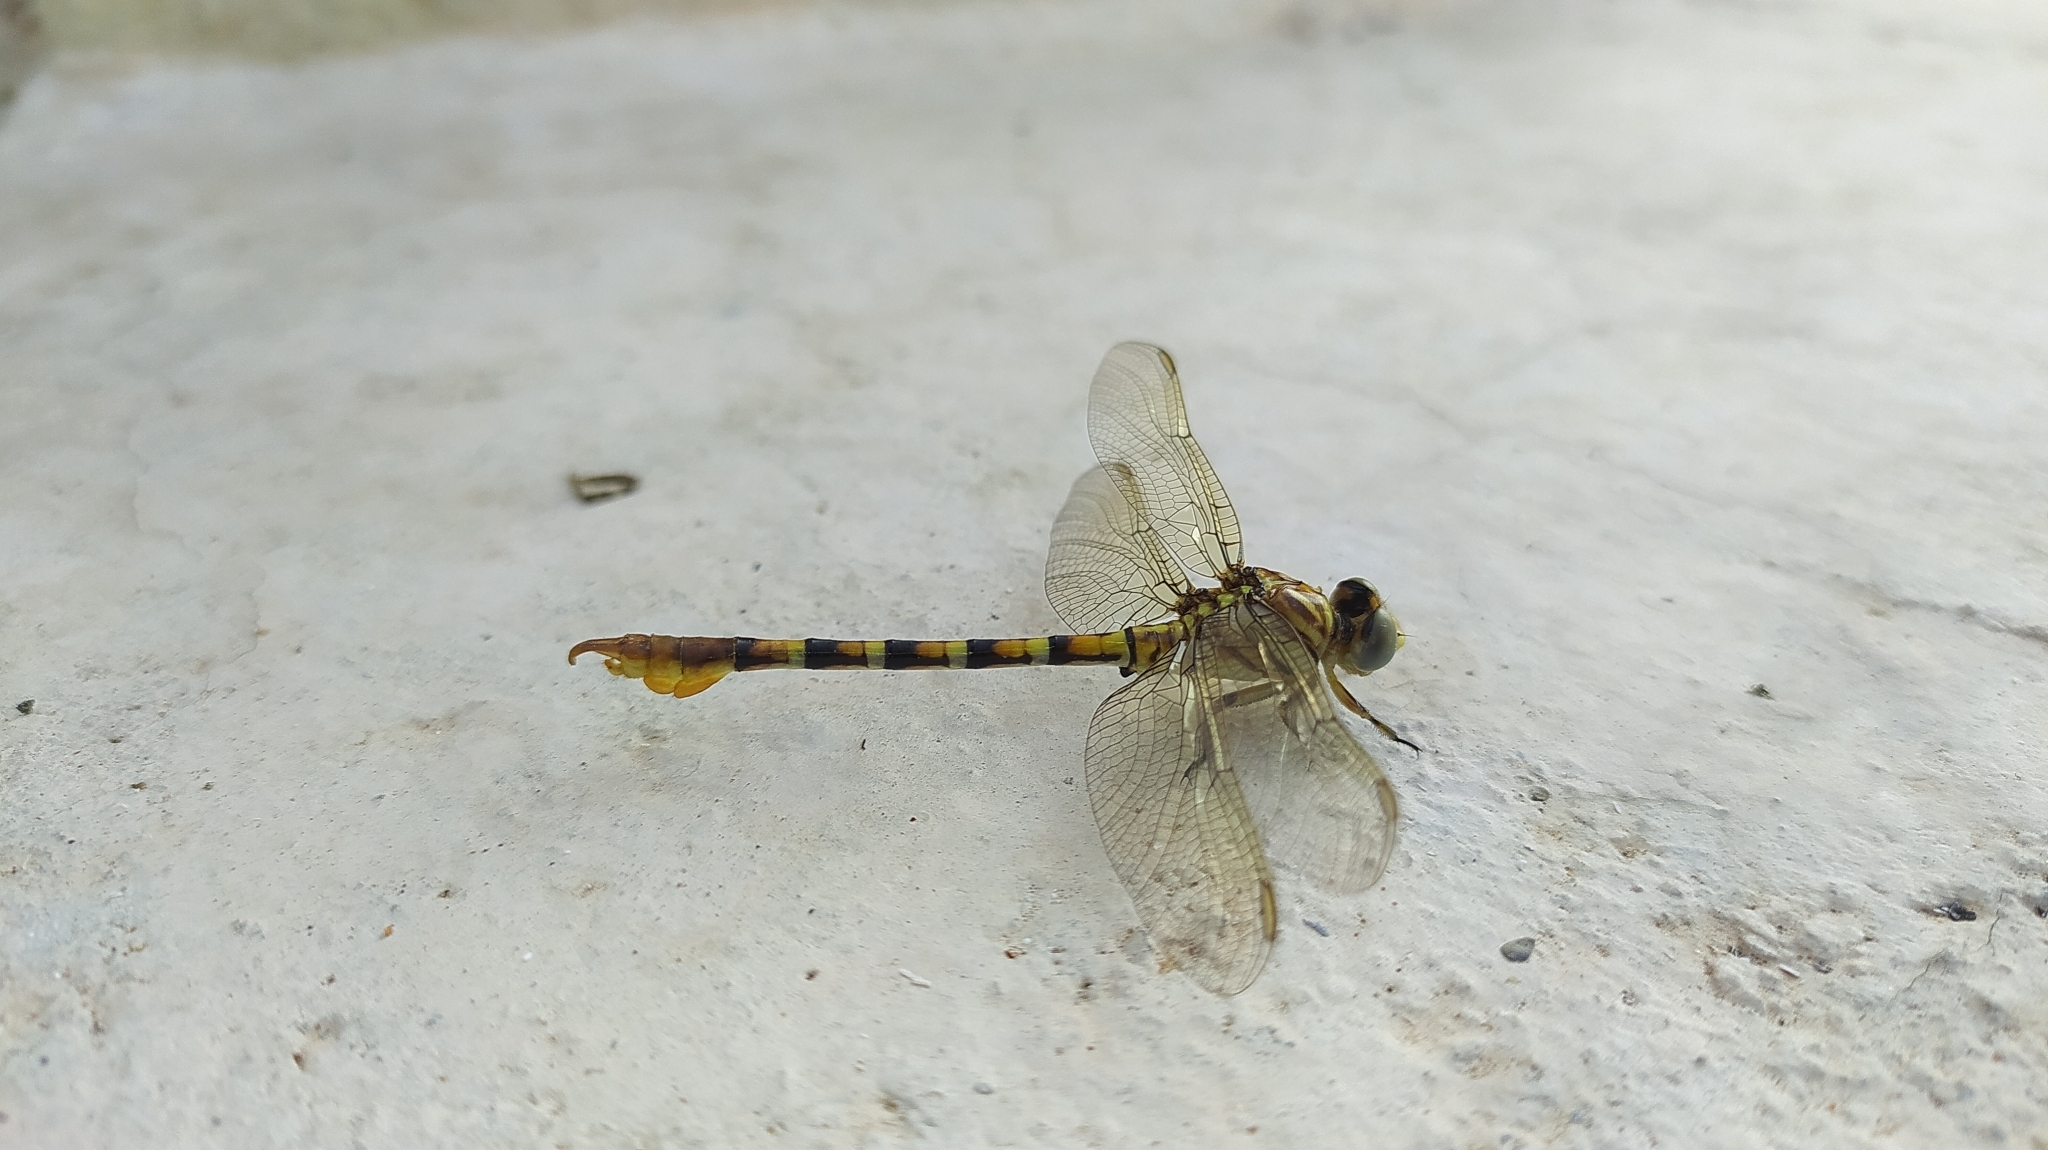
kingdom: Animalia
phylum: Arthropoda
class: Insecta
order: Odonata
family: Gomphidae
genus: Paragomphus
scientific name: Paragomphus lineatus
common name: Lined hooktail
